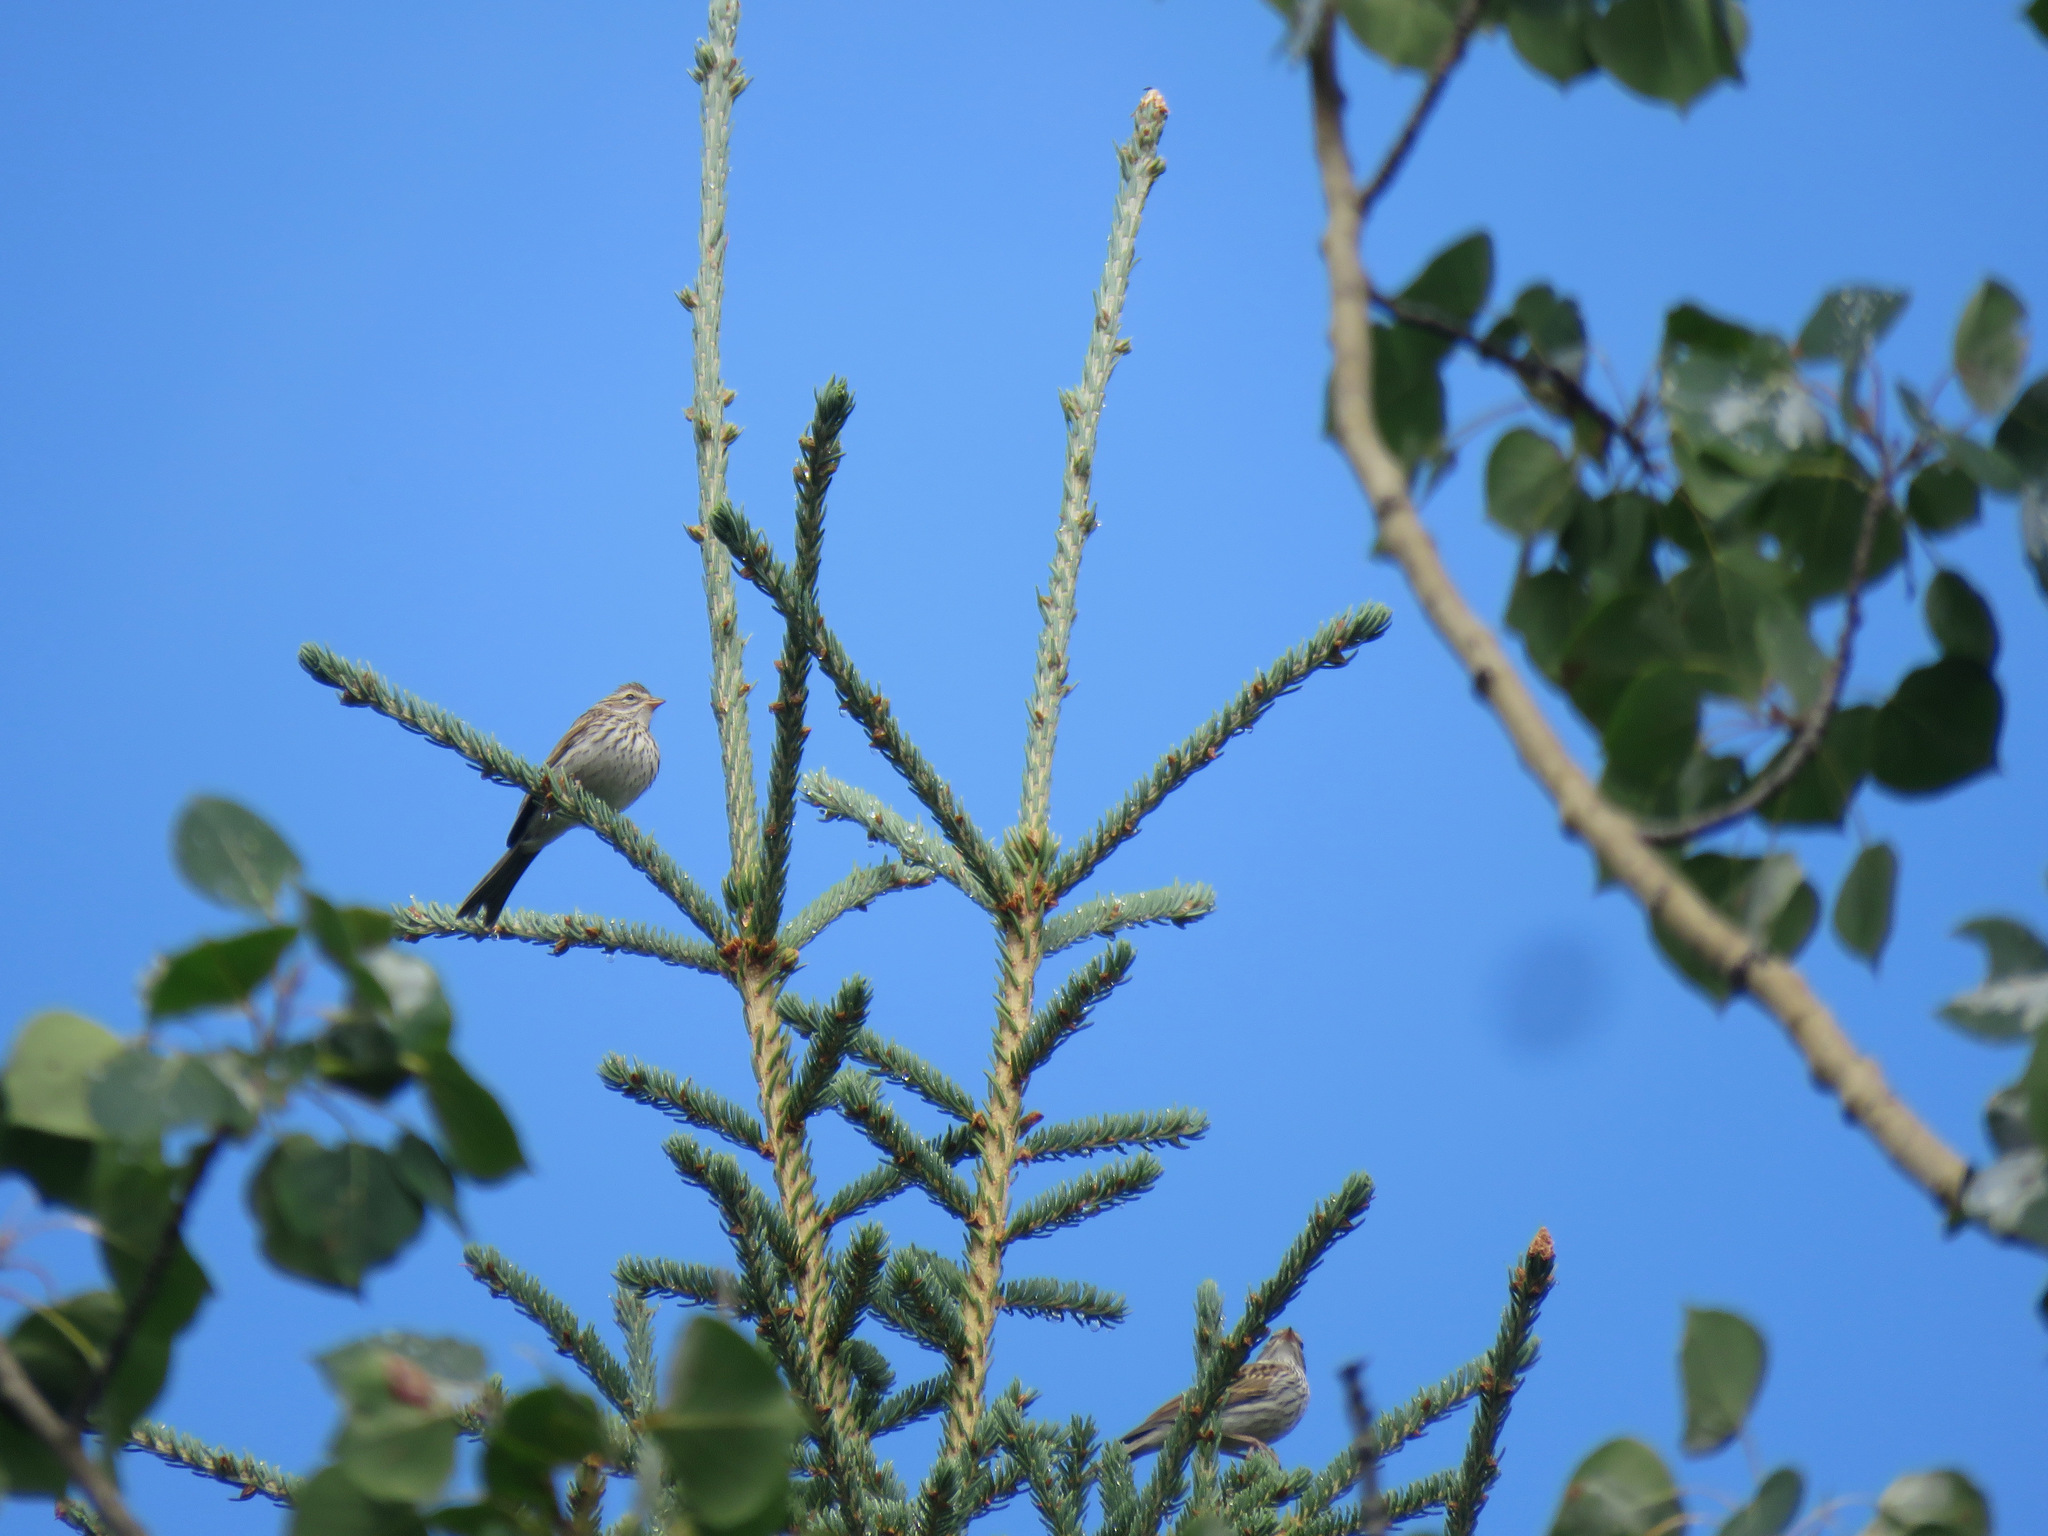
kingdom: Animalia
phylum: Chordata
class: Aves
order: Passeriformes
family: Passerellidae
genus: Spizella
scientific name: Spizella passerina
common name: Chipping sparrow
